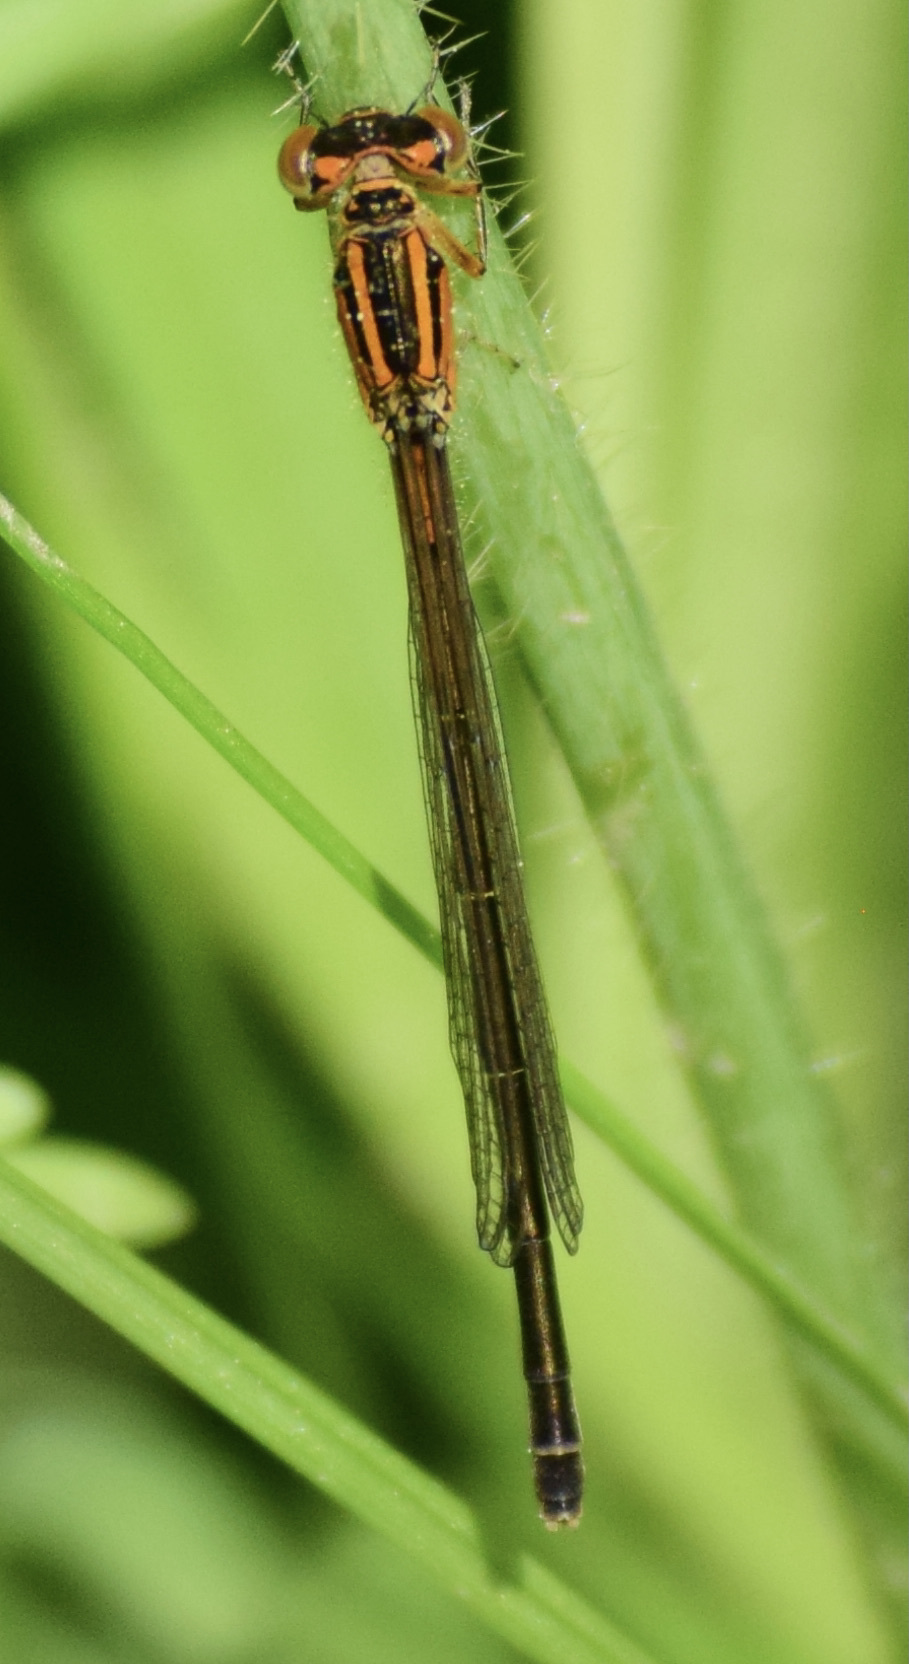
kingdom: Animalia
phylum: Arthropoda
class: Insecta
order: Odonata
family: Coenagrionidae
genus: Ischnura
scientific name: Ischnura verticalis
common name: Eastern forktail
